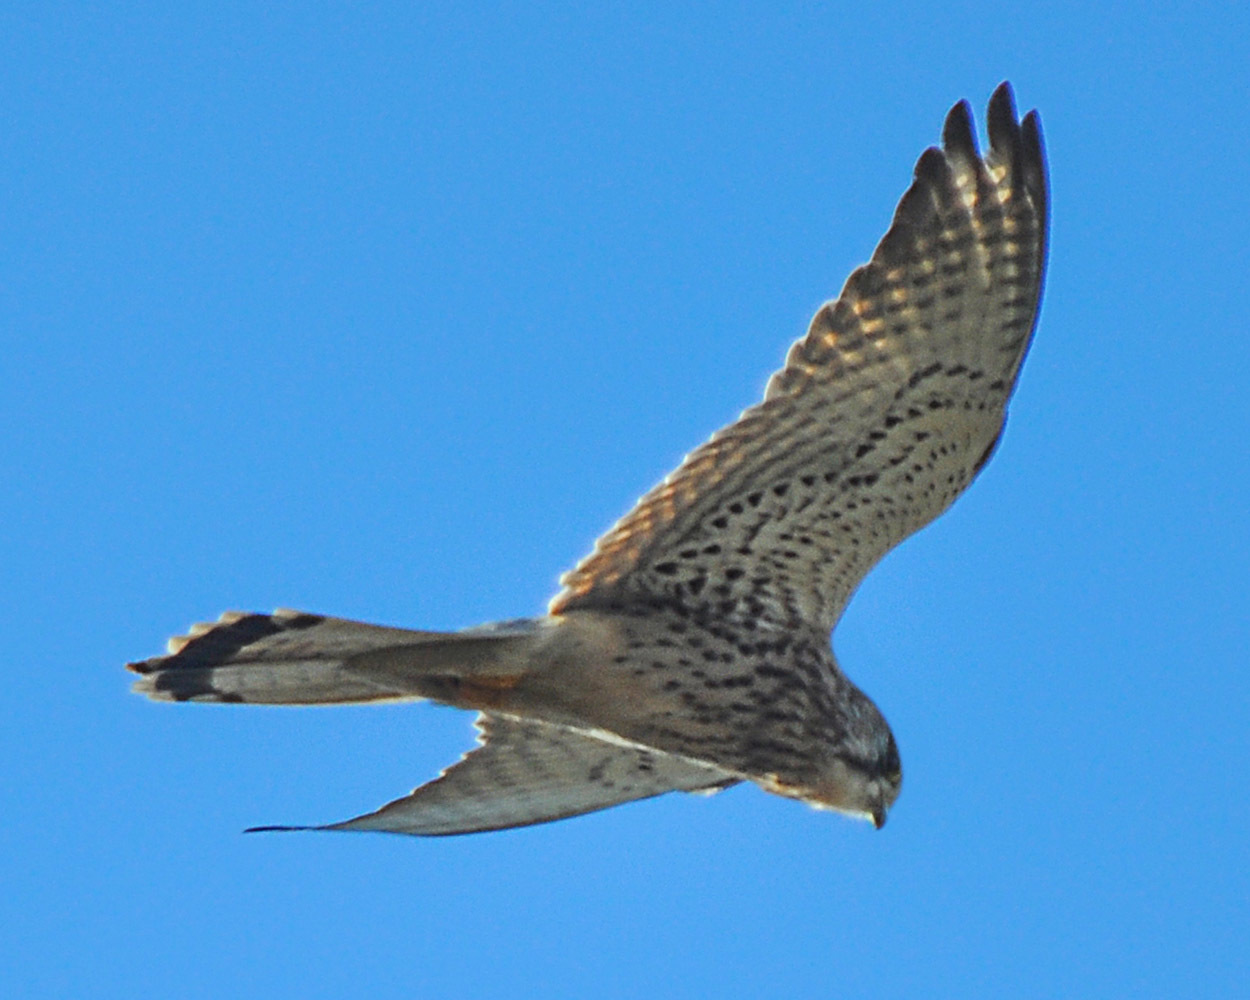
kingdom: Animalia
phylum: Chordata
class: Aves
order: Falconiformes
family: Falconidae
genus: Falco
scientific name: Falco tinnunculus
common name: Common kestrel
